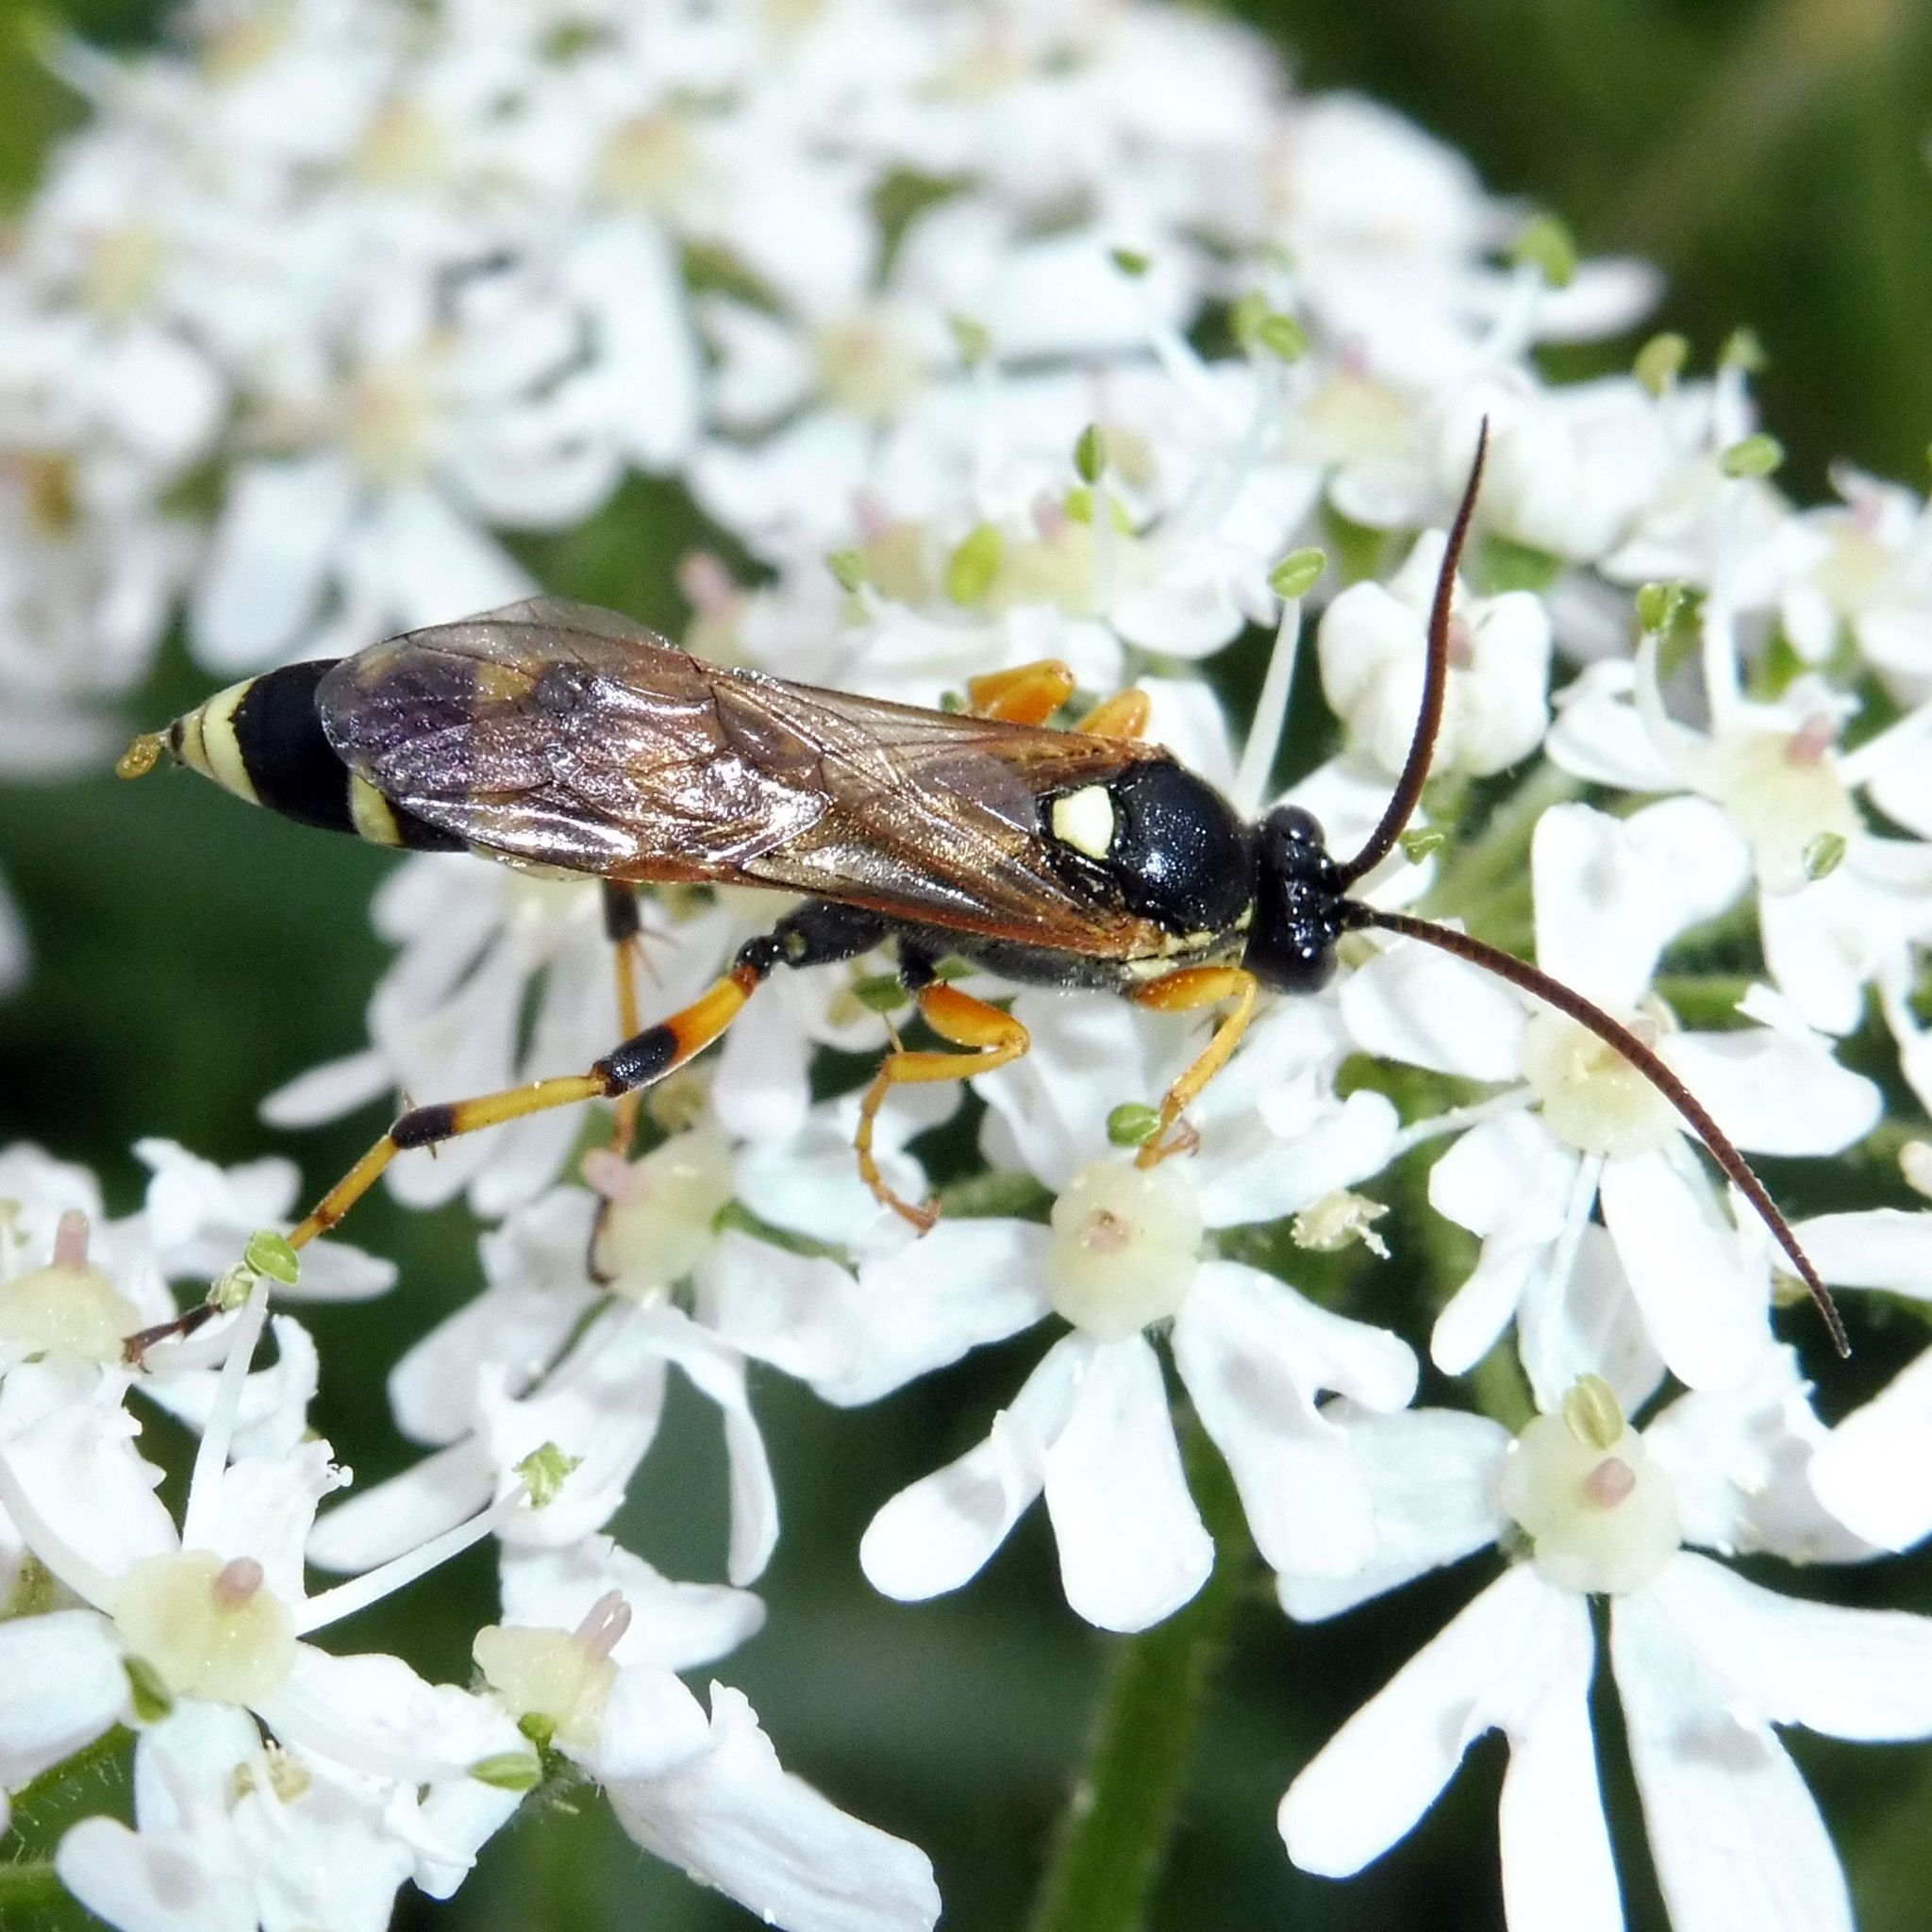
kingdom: Animalia
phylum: Arthropoda
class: Insecta
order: Hymenoptera
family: Ichneumonidae
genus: Ichneumon
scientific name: Ichneumon sarcitorius
